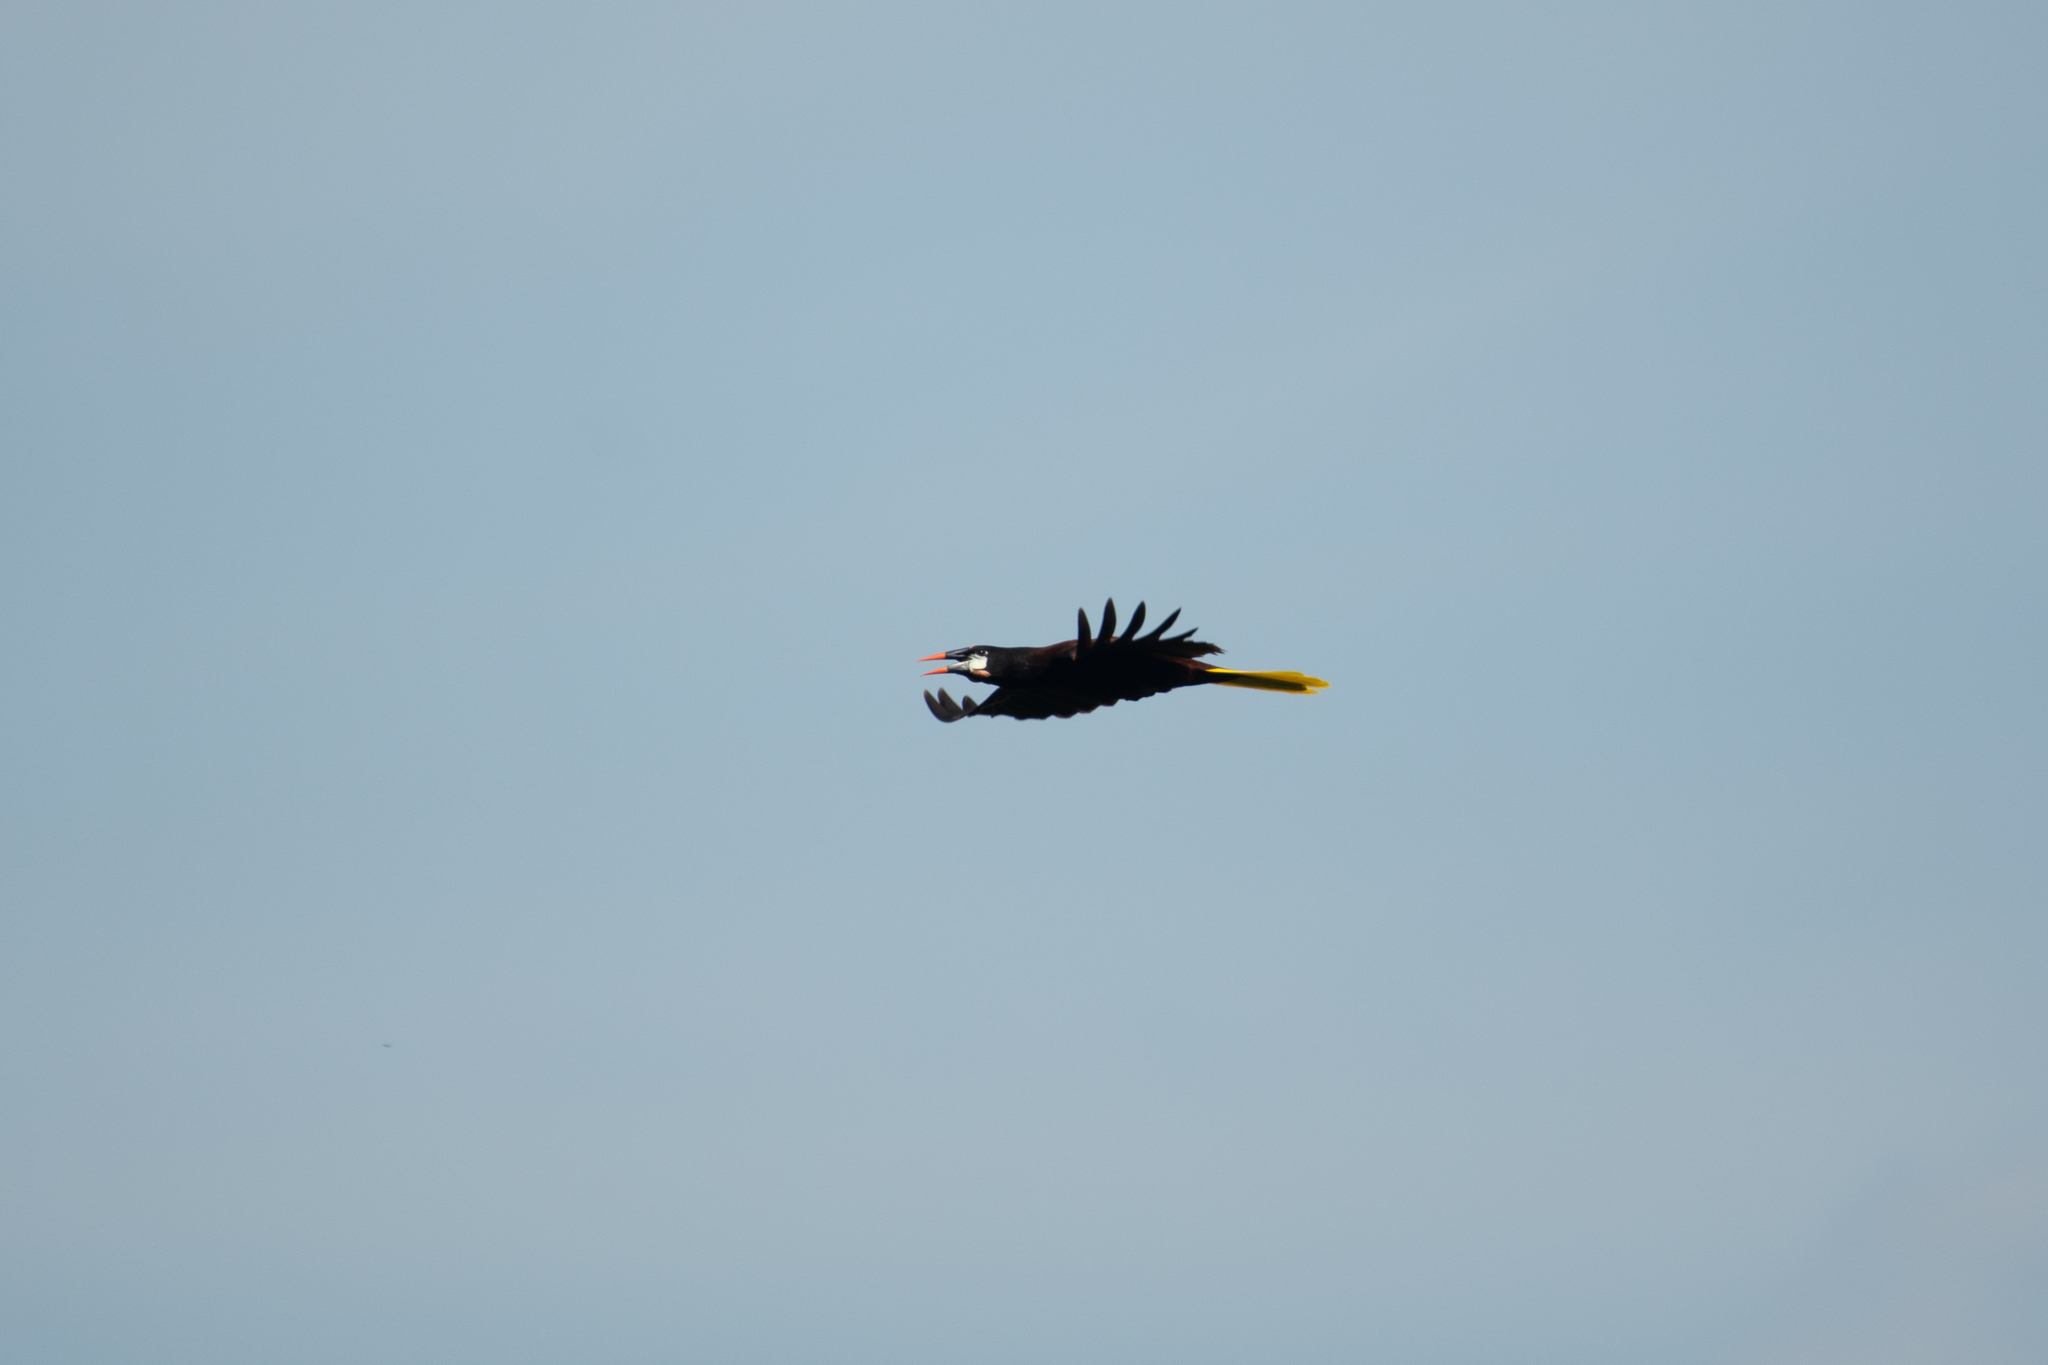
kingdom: Animalia
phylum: Chordata
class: Aves
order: Passeriformes
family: Icteridae
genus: Psarocolius
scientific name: Psarocolius montezuma
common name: Montezuma oropendola
